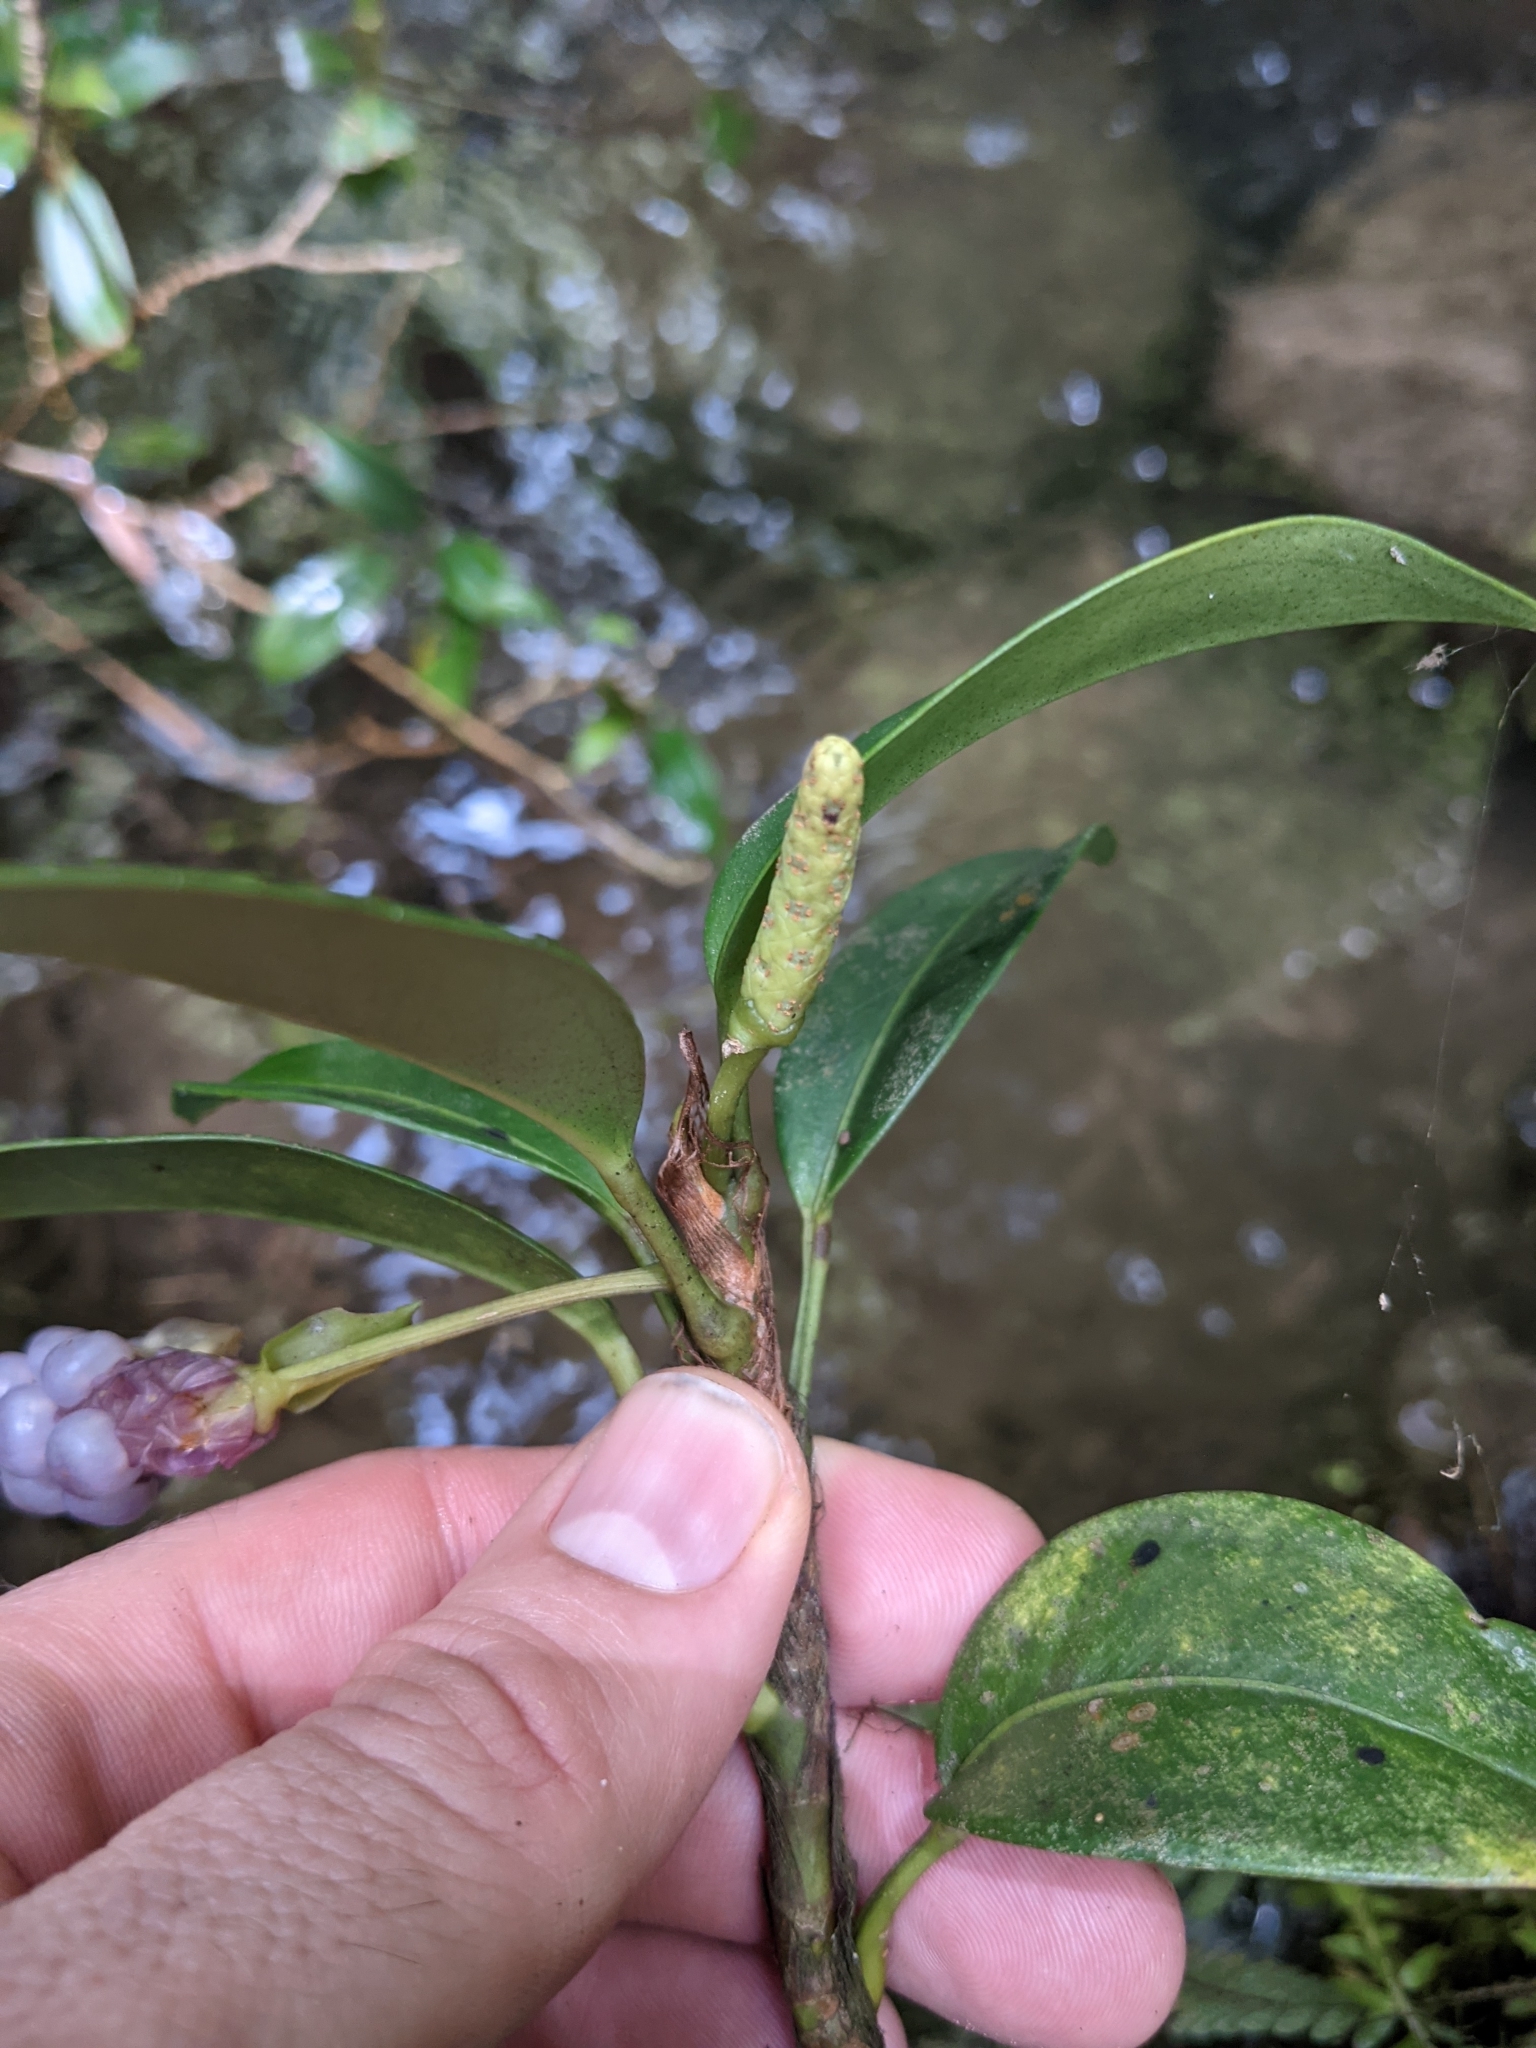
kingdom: Plantae
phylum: Tracheophyta
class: Liliopsida
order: Alismatales
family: Araceae
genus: Anthurium
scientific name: Anthurium scandens
